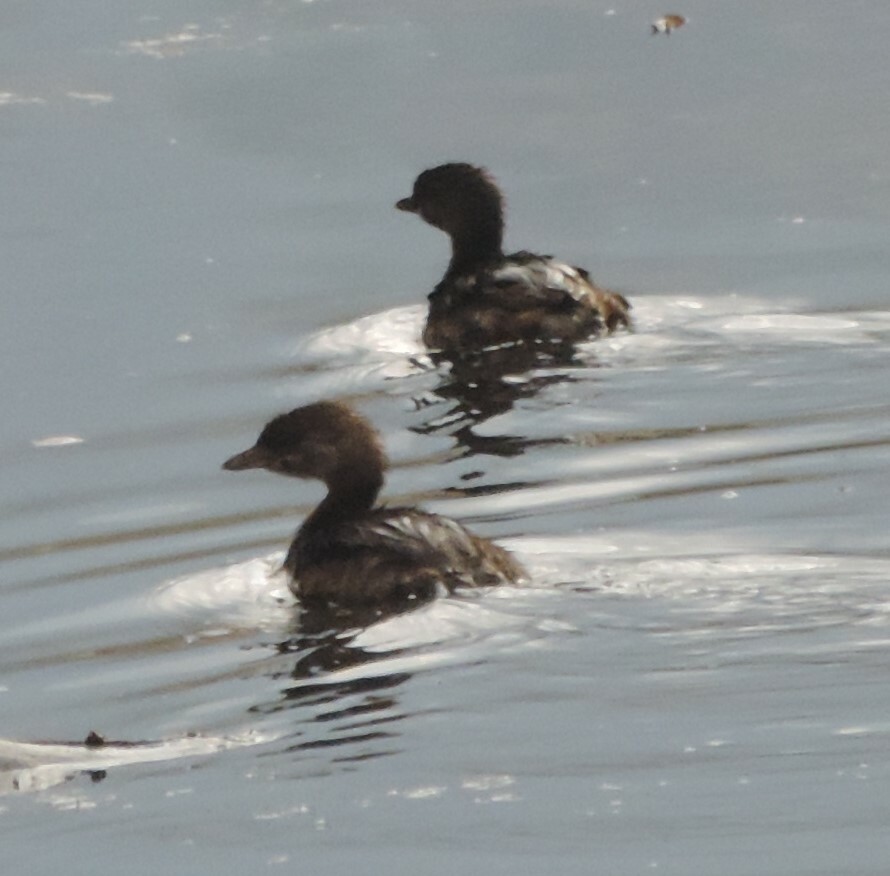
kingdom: Animalia
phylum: Chordata
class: Aves
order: Podicipediformes
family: Podicipedidae
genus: Podilymbus
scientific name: Podilymbus podiceps
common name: Pied-billed grebe
